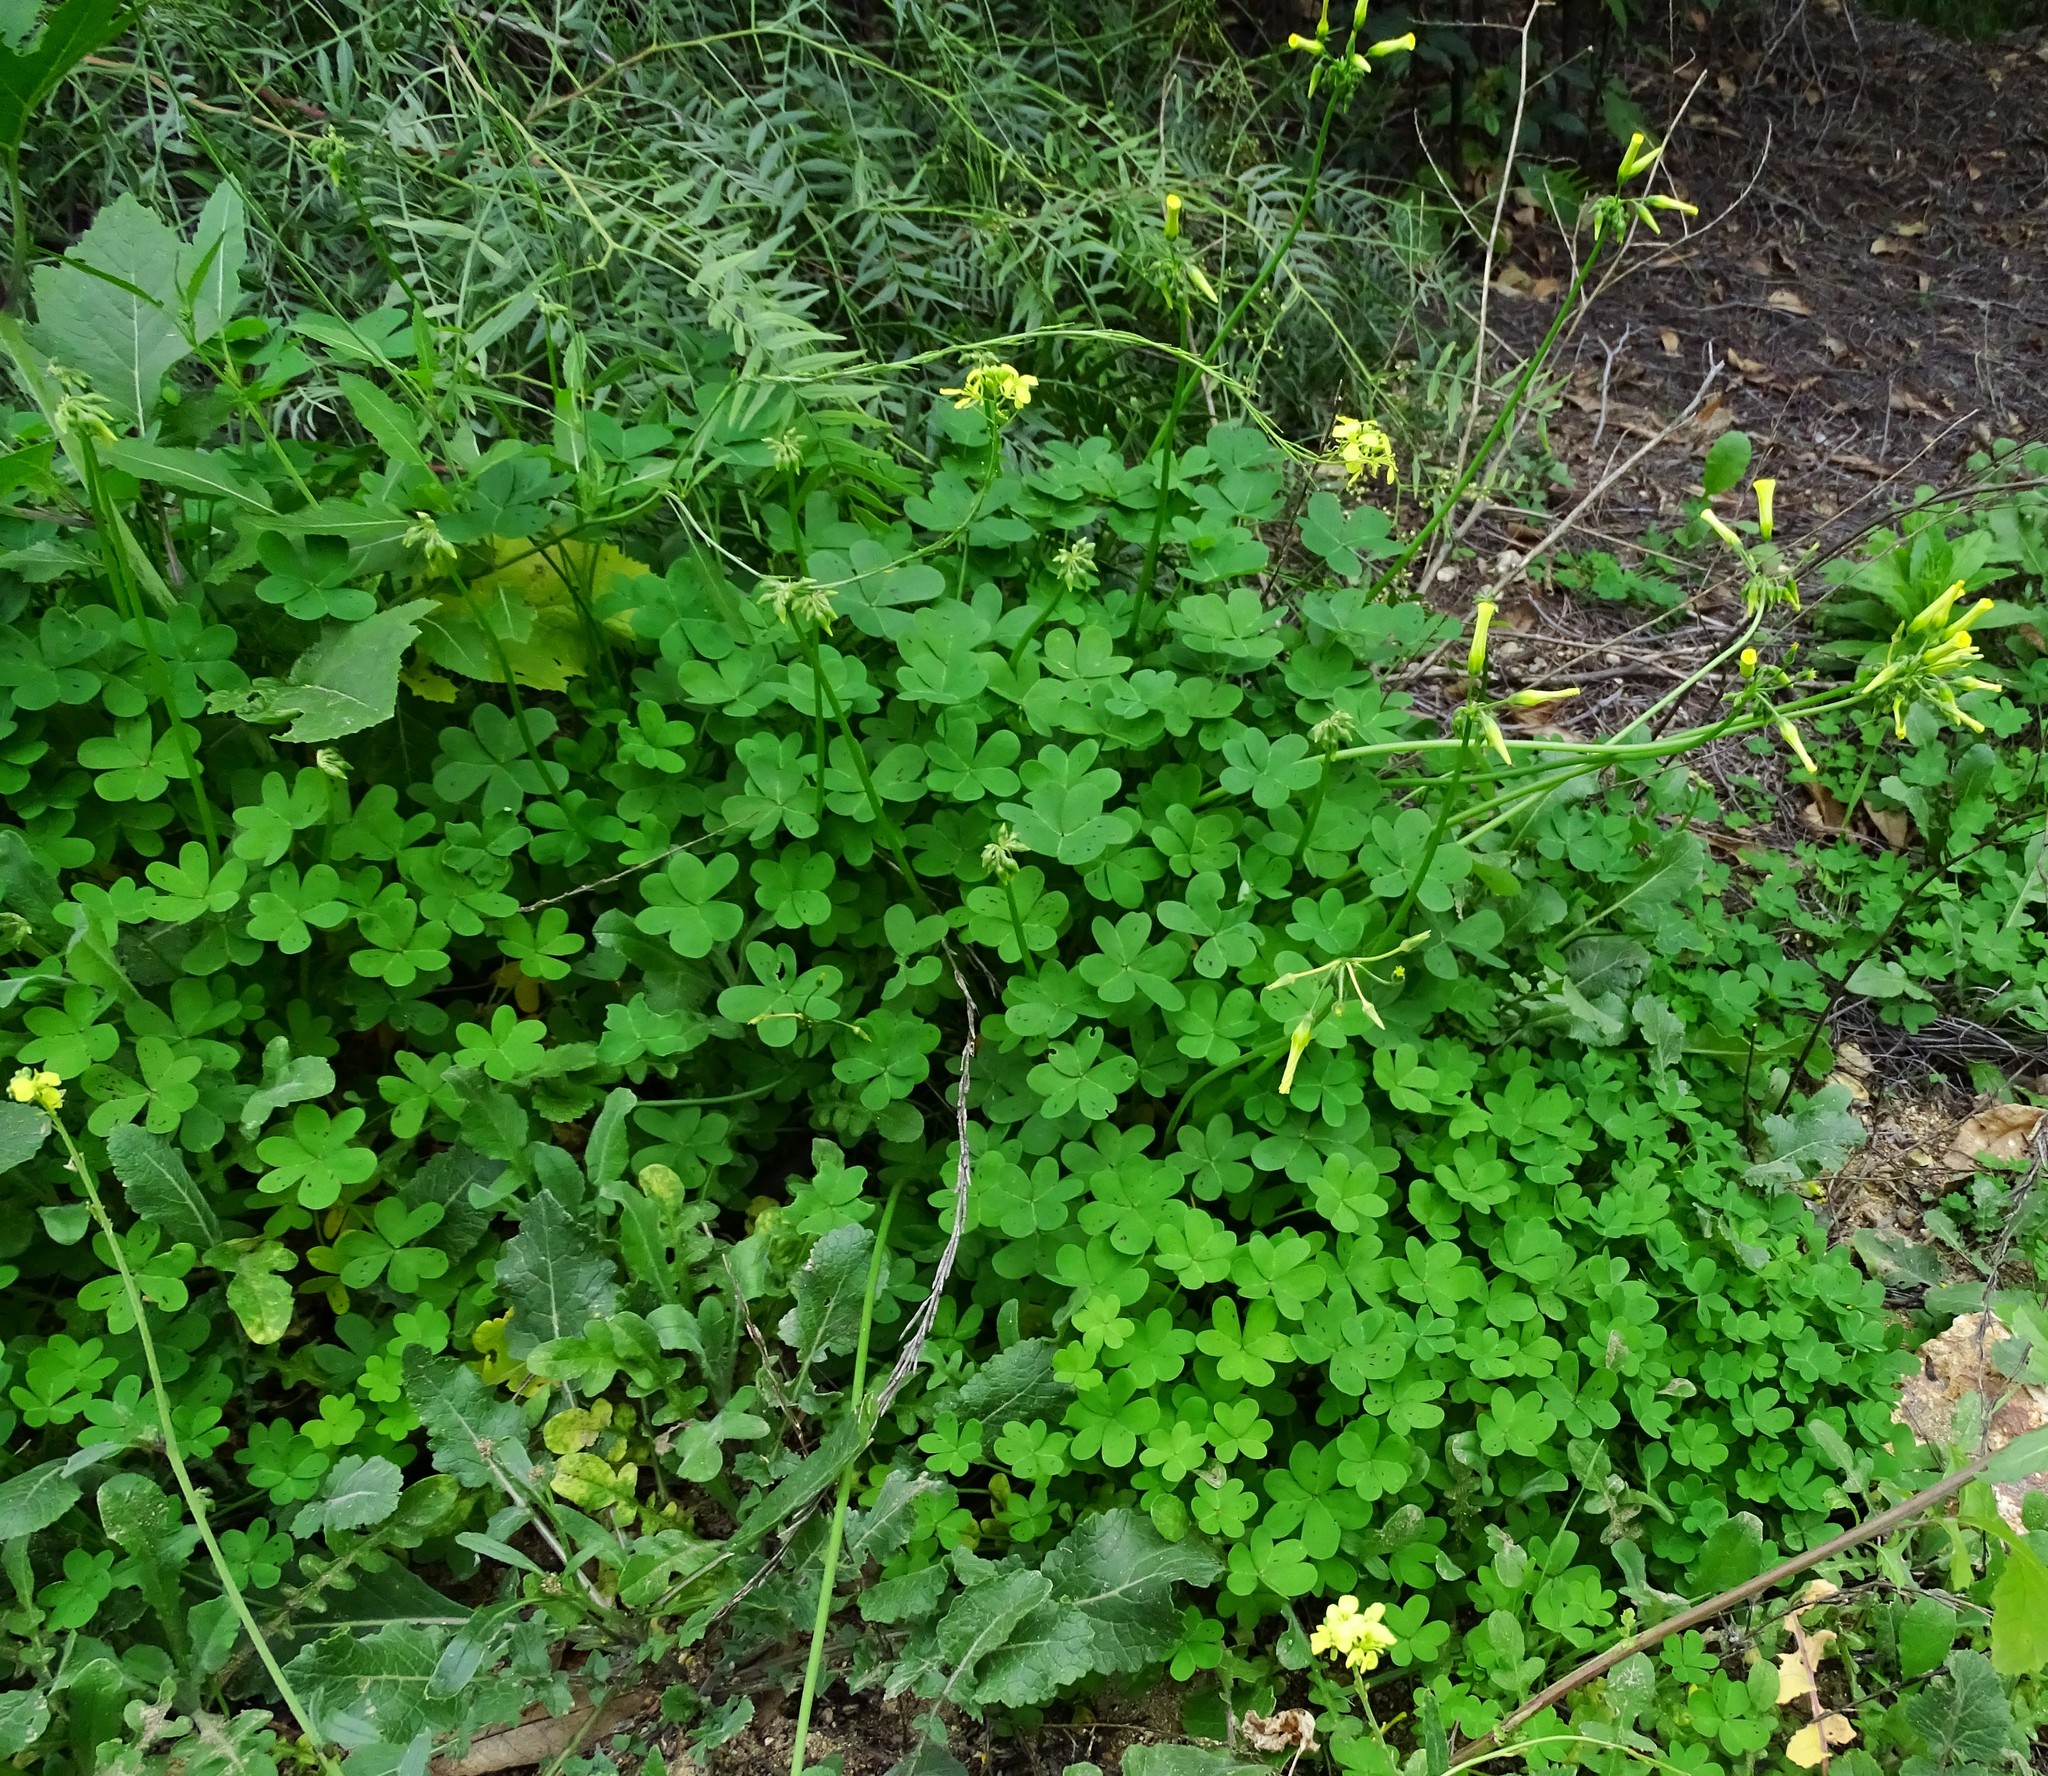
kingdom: Plantae
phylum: Tracheophyta
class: Magnoliopsida
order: Oxalidales
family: Oxalidaceae
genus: Oxalis
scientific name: Oxalis pes-caprae
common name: Bermuda-buttercup
